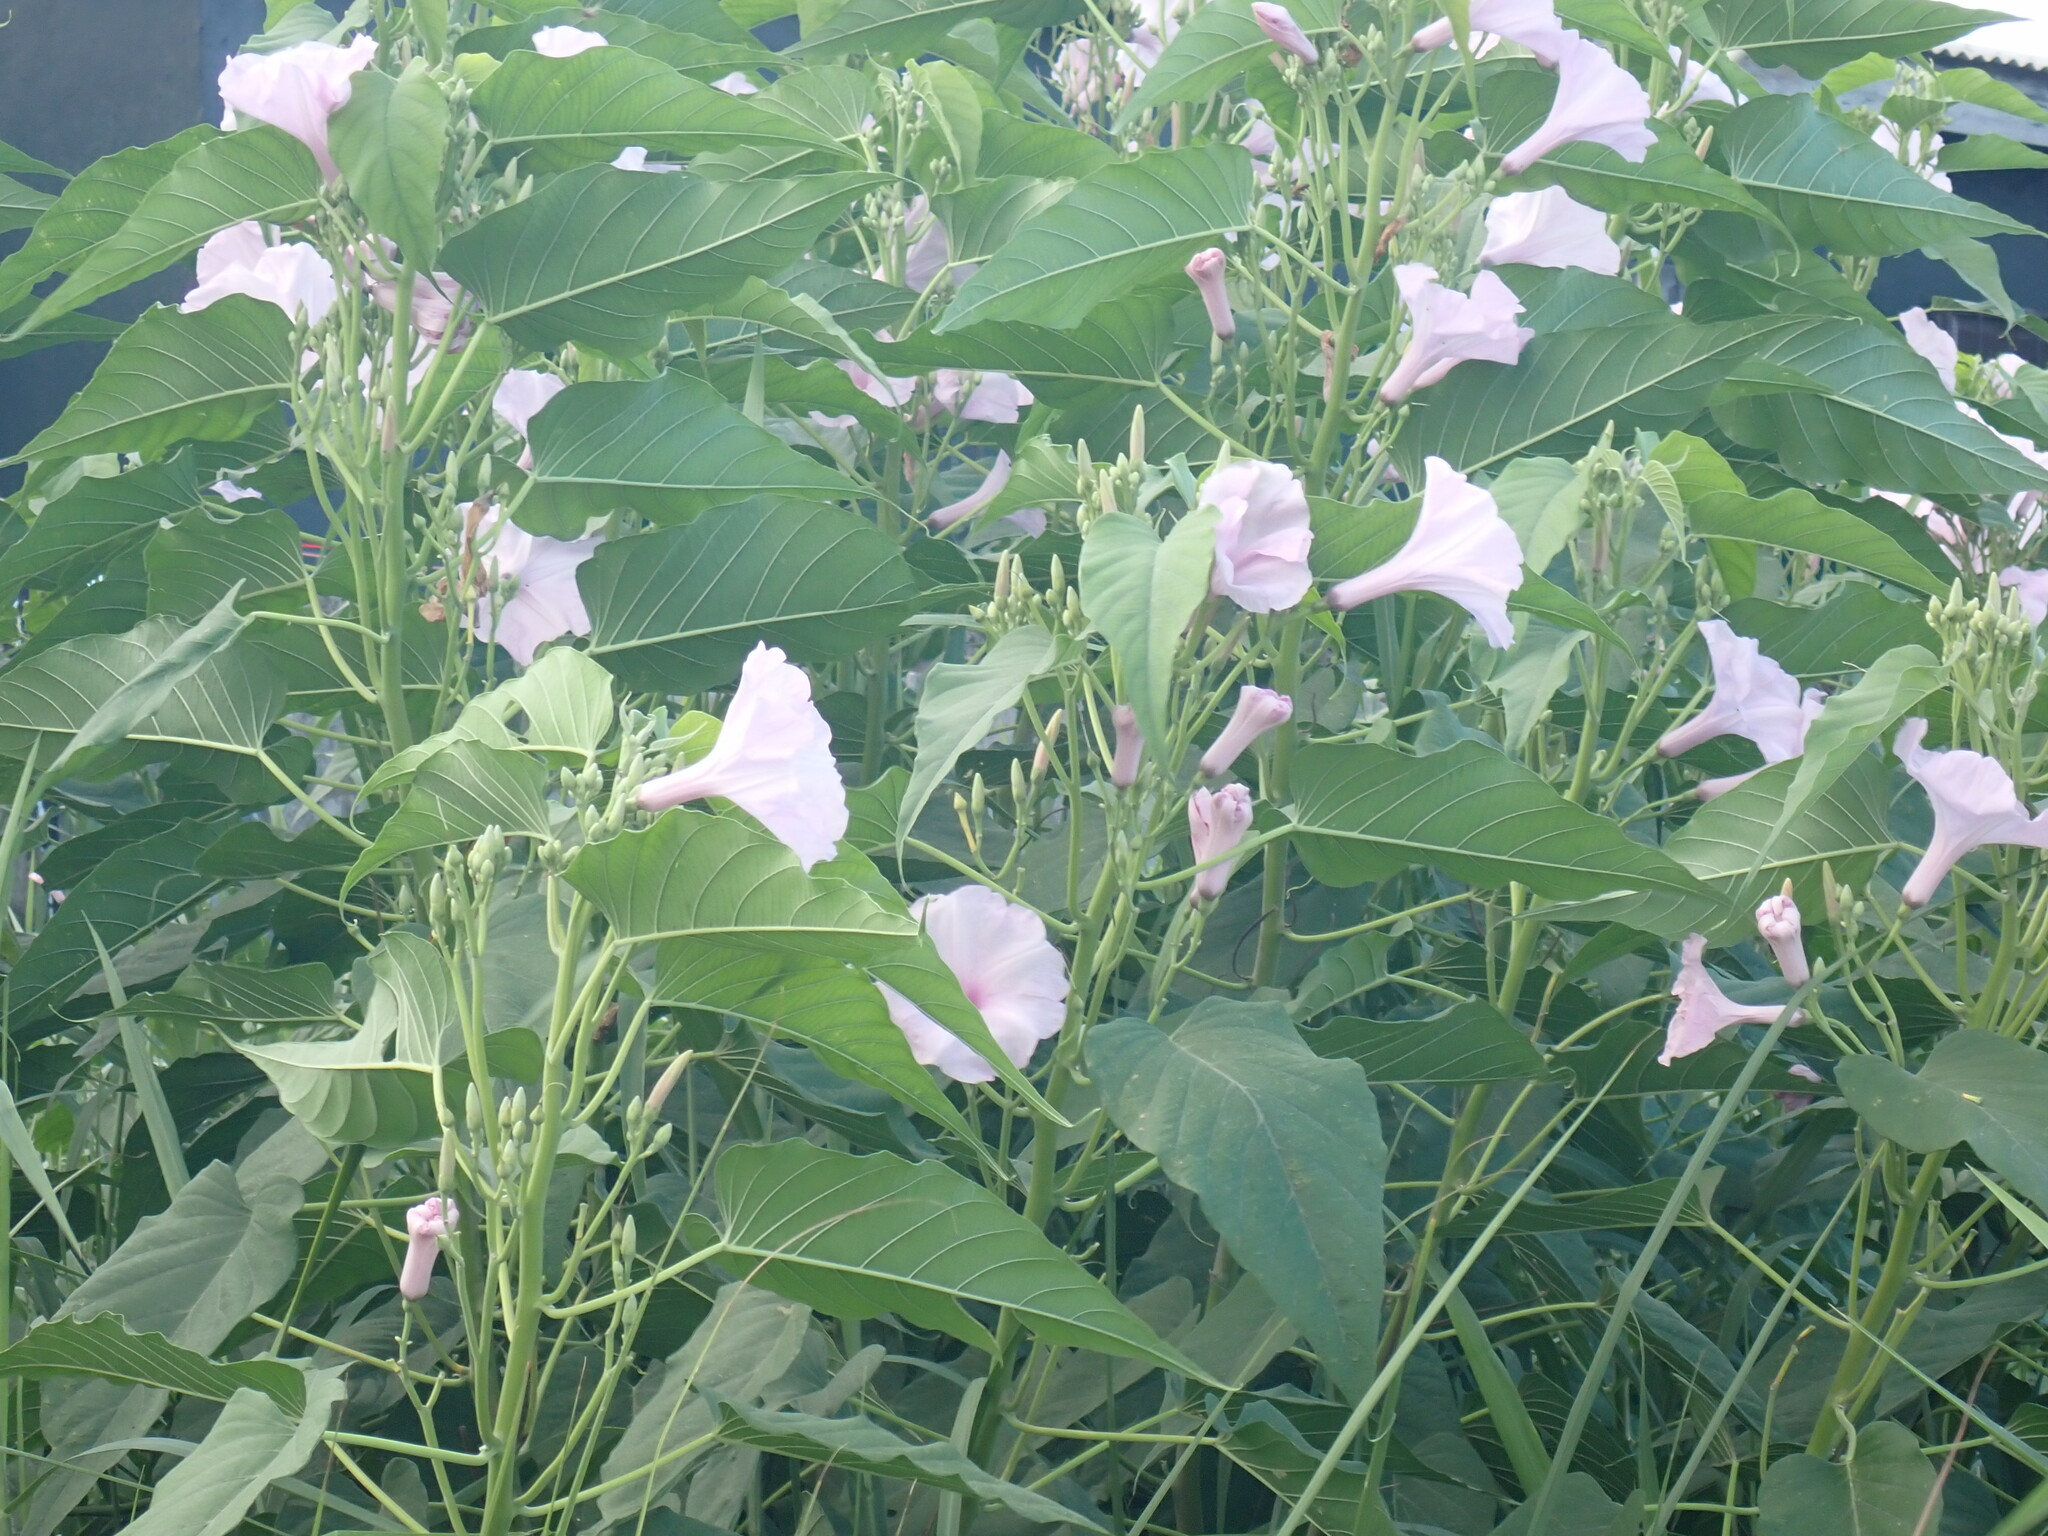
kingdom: Plantae
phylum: Tracheophyta
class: Magnoliopsida
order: Solanales
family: Convolvulaceae
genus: Ipomoea
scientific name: Ipomoea carnea
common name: Morning-glory
